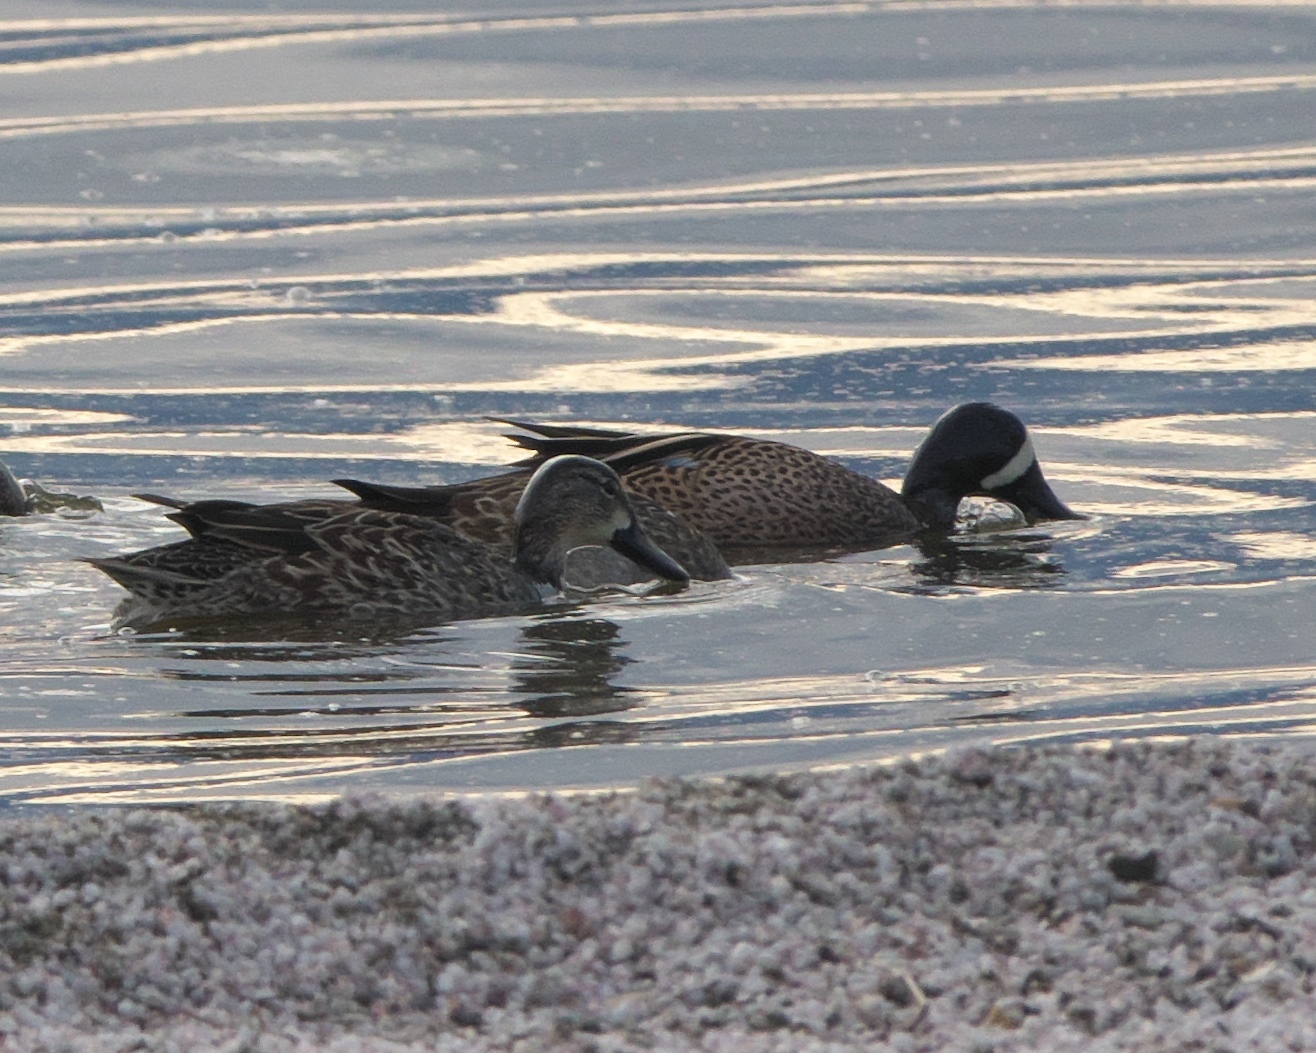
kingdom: Animalia
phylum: Chordata
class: Aves
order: Anseriformes
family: Anatidae
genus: Spatula
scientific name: Spatula discors
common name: Blue-winged teal
